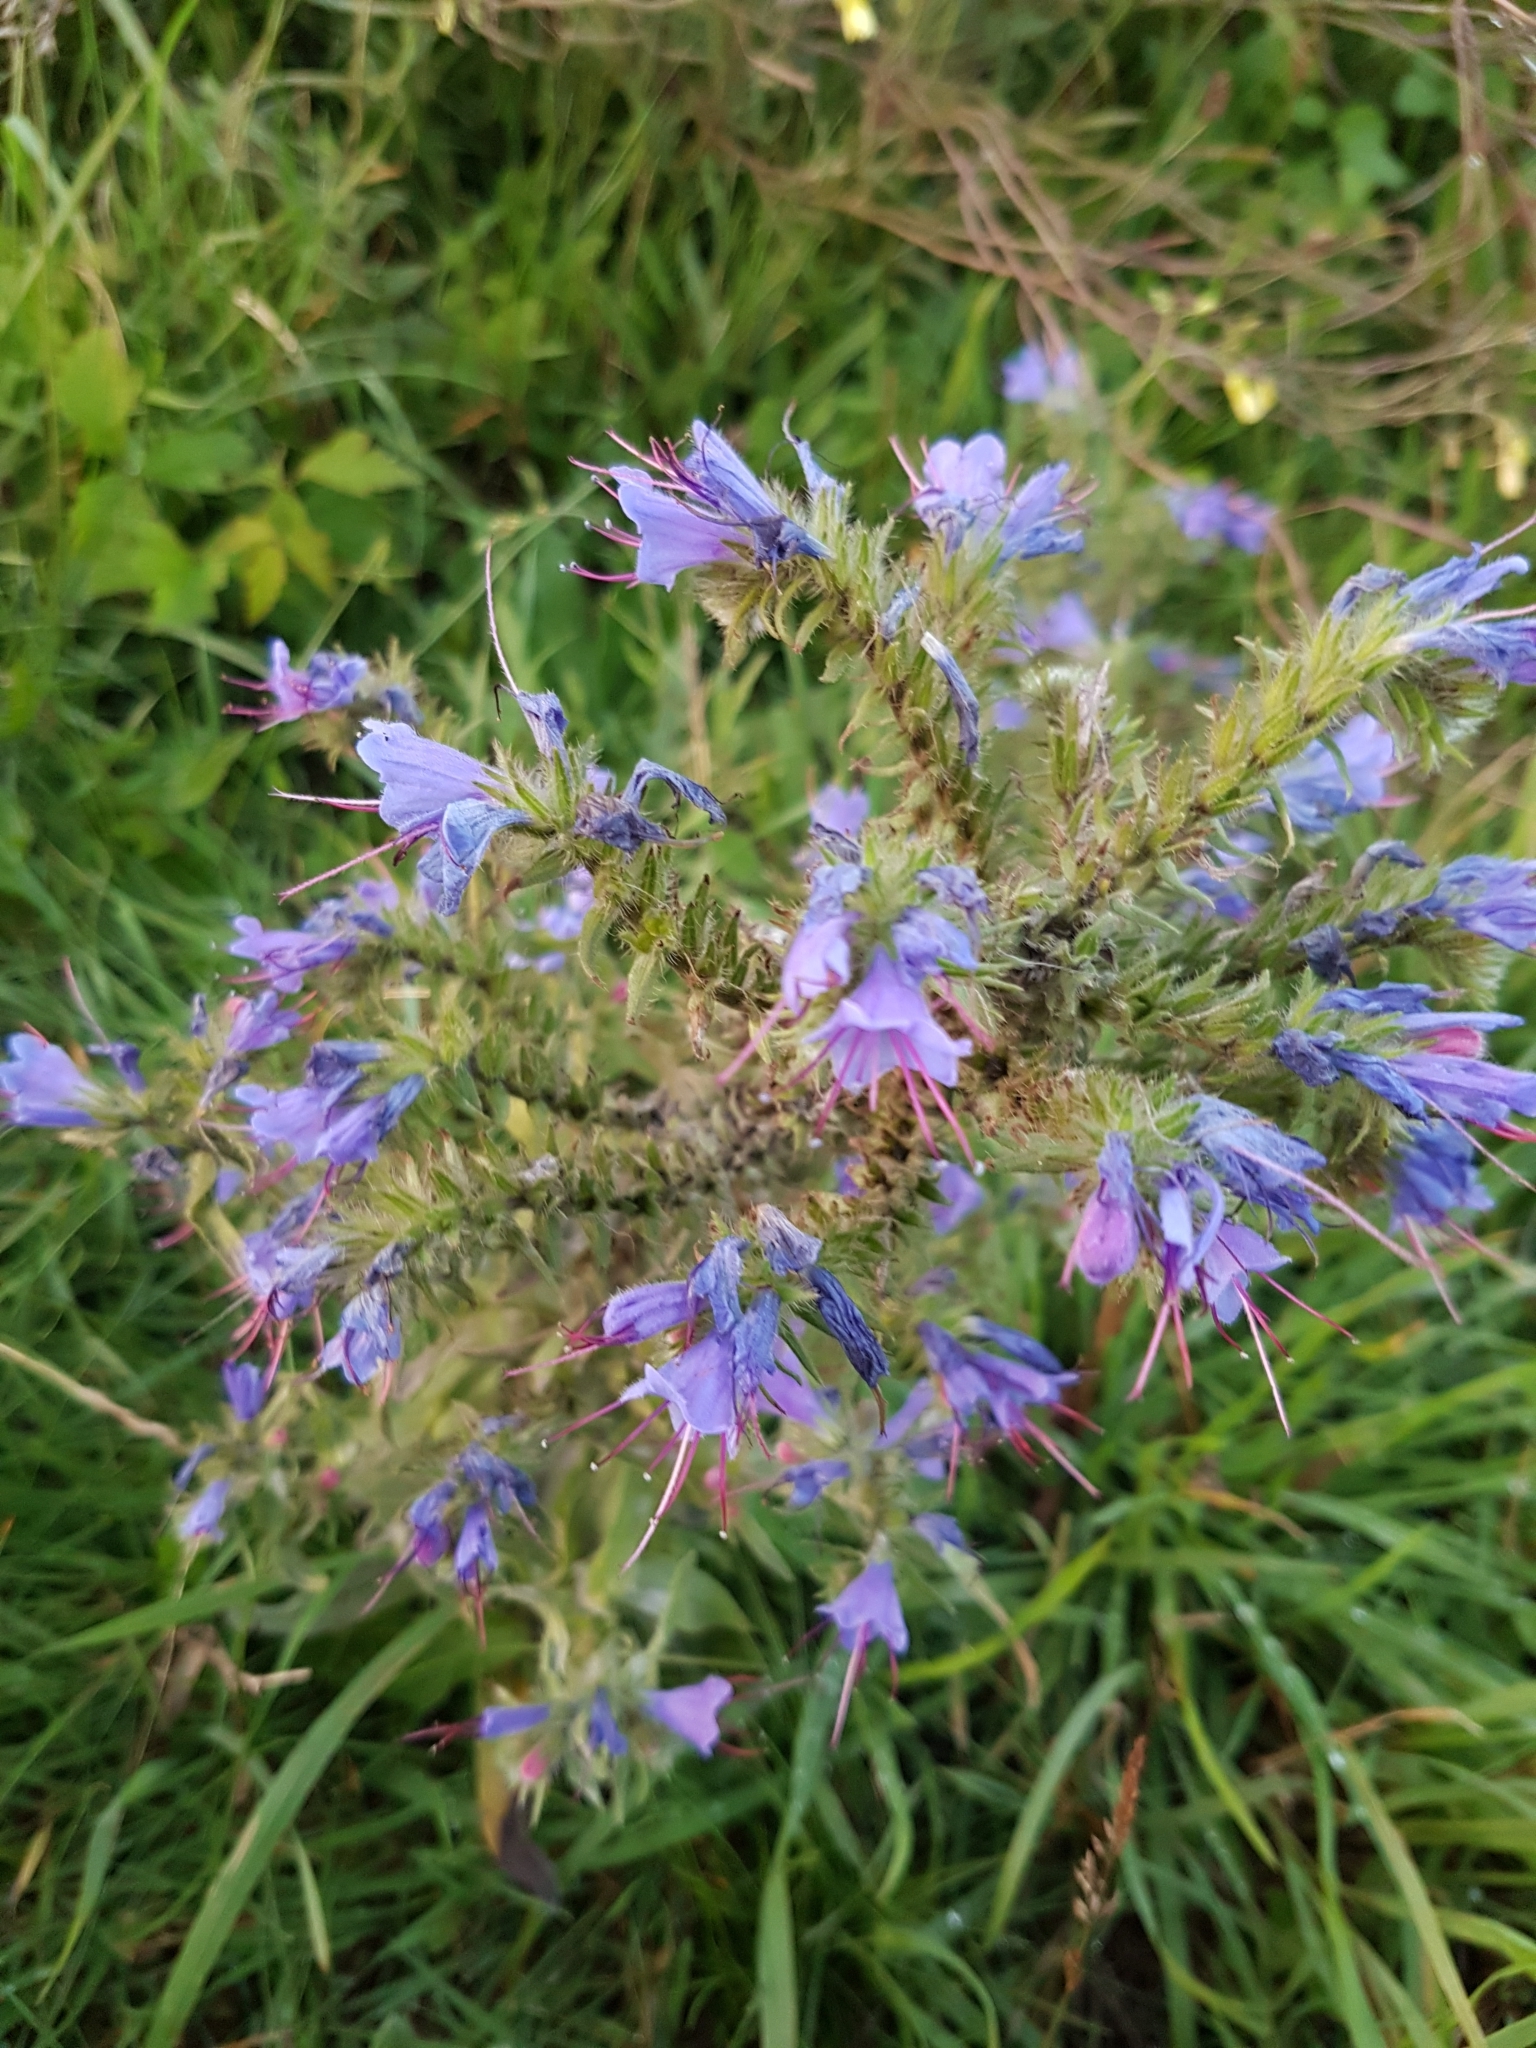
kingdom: Plantae
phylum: Tracheophyta
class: Magnoliopsida
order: Boraginales
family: Boraginaceae
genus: Echium
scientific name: Echium vulgare
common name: Common viper's bugloss
